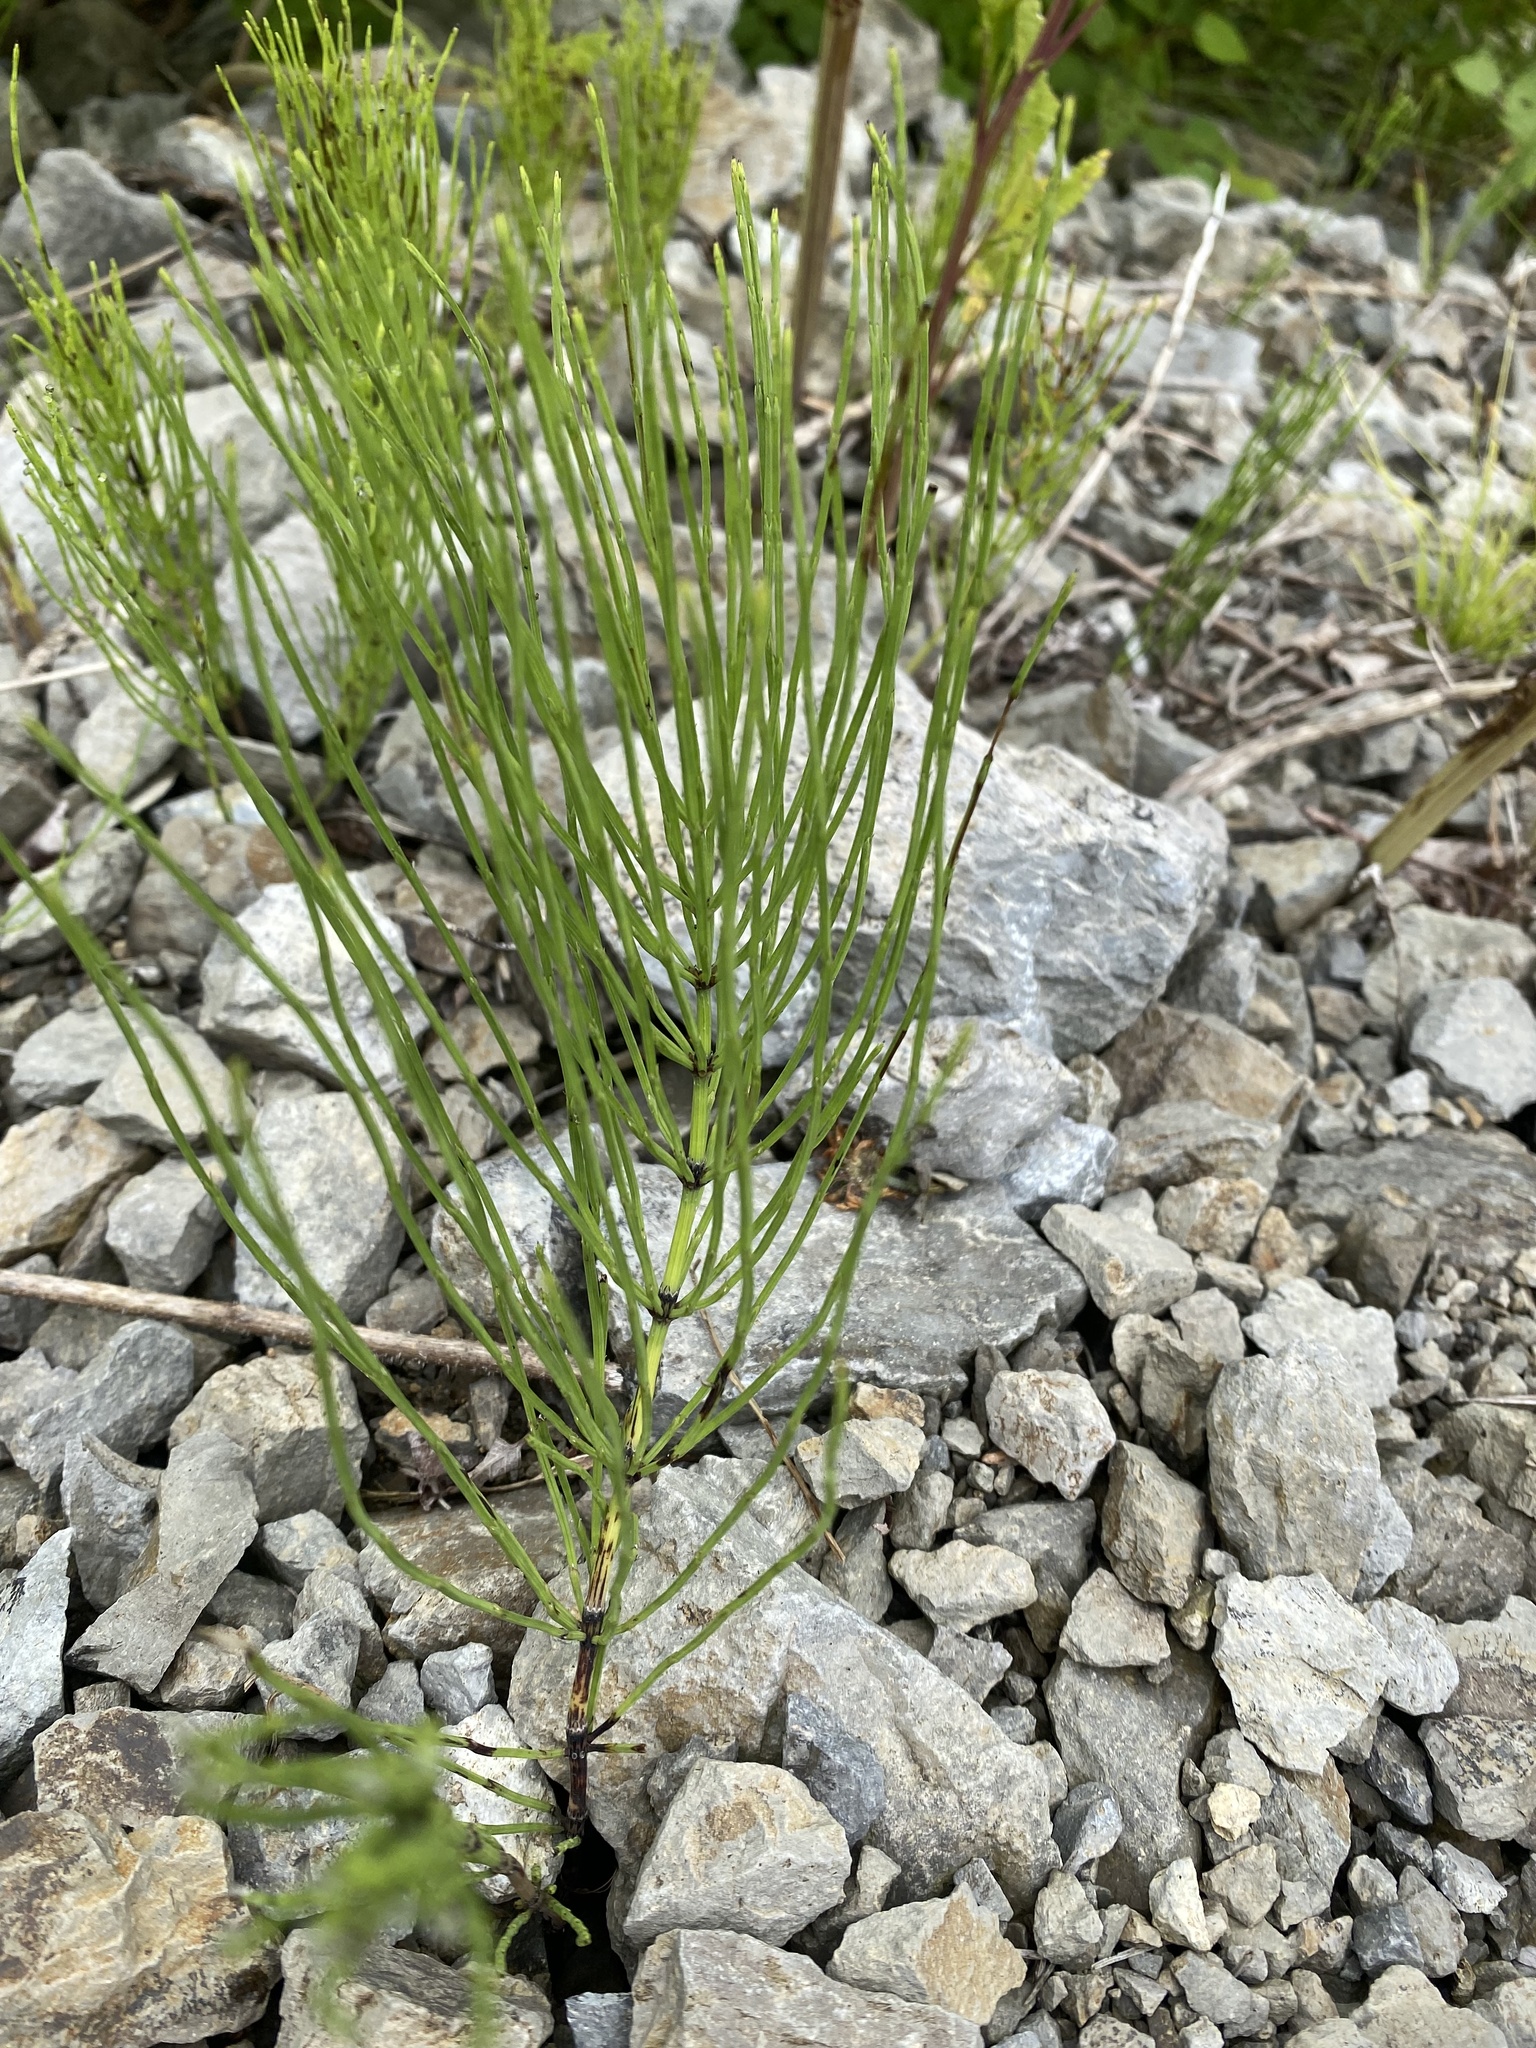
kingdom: Plantae
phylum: Tracheophyta
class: Polypodiopsida
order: Equisetales
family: Equisetaceae
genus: Equisetum
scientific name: Equisetum arvense
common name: Field horsetail
